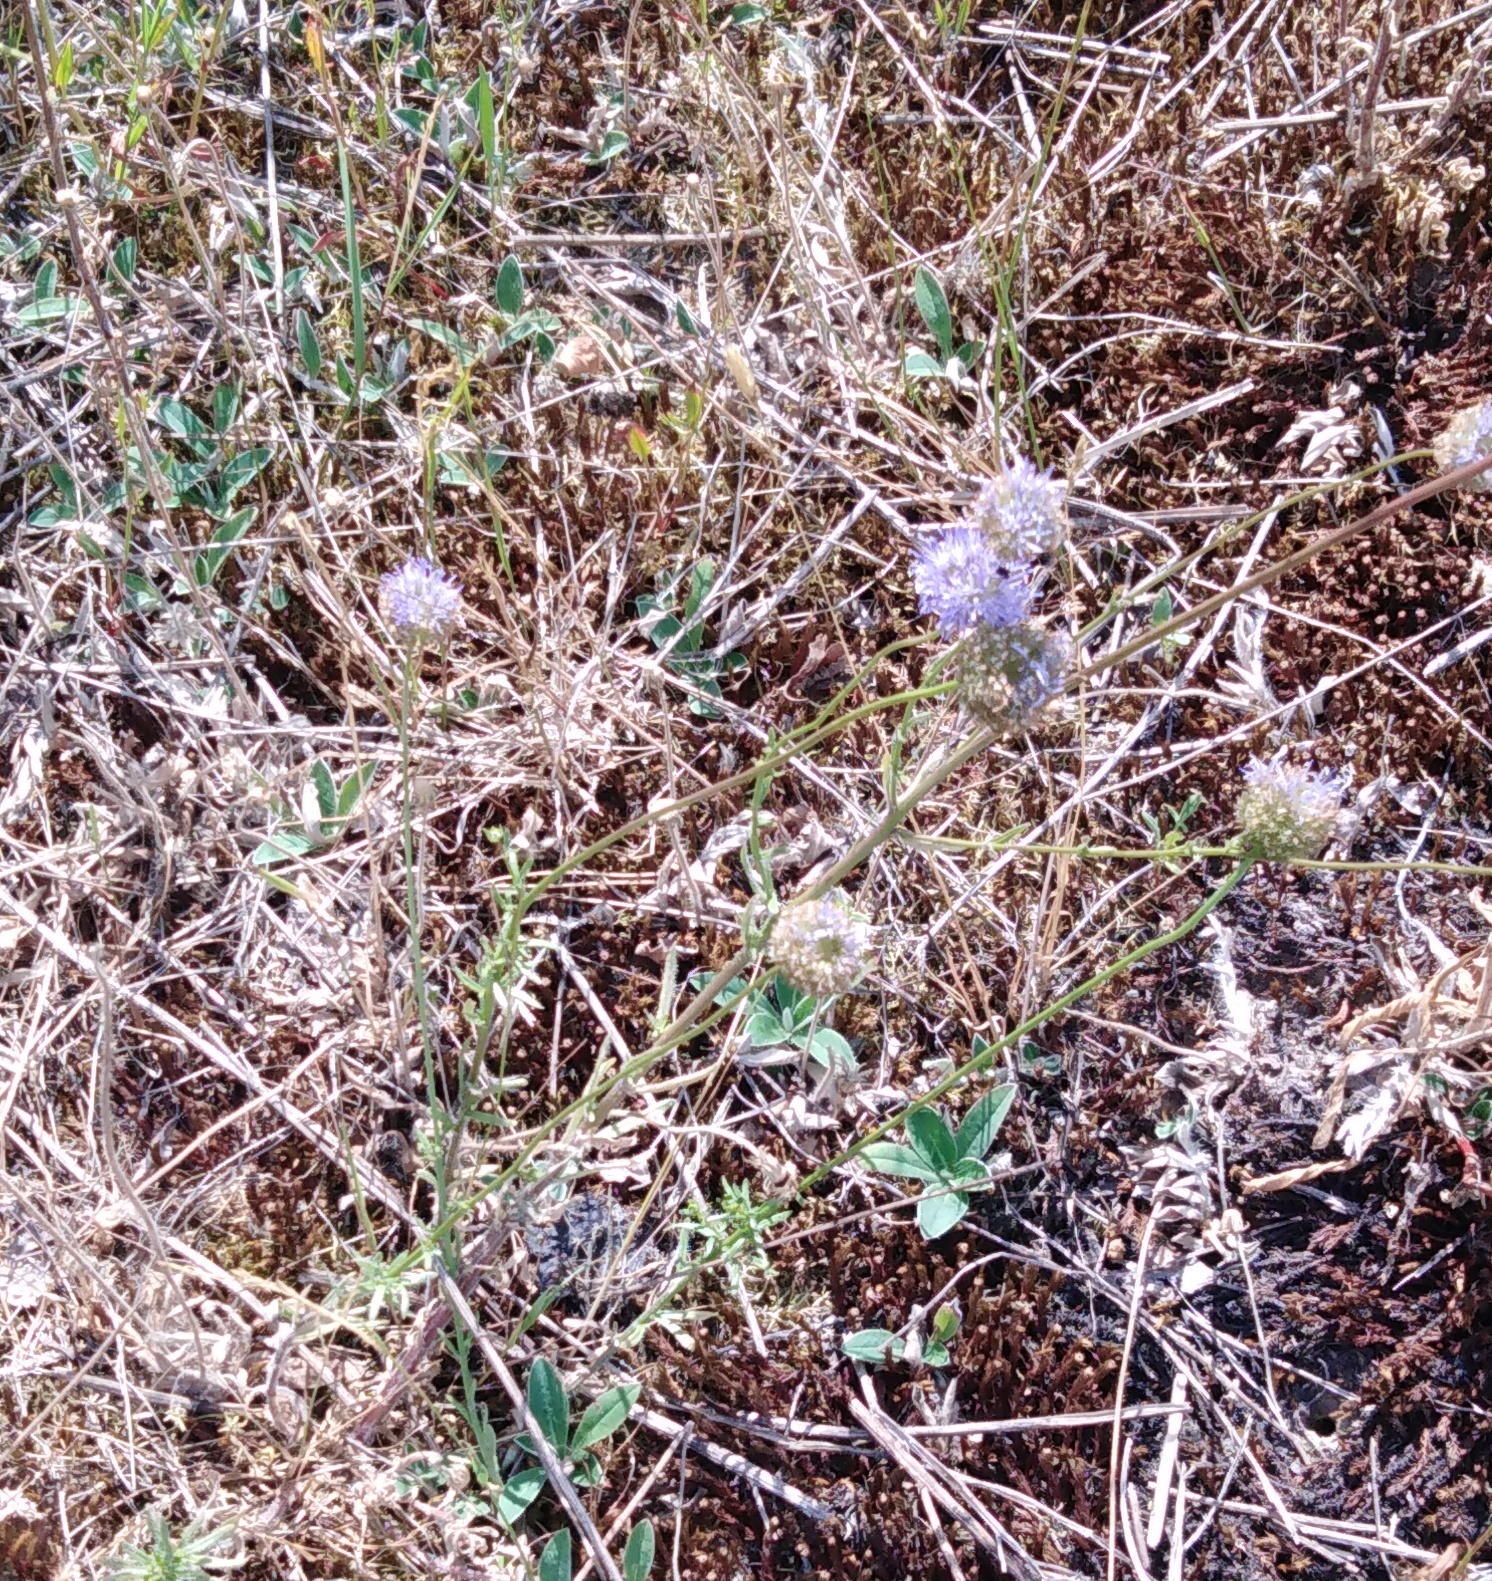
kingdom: Plantae
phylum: Tracheophyta
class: Magnoliopsida
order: Asterales
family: Campanulaceae
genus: Jasione
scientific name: Jasione montana
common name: Sheep's-bit
